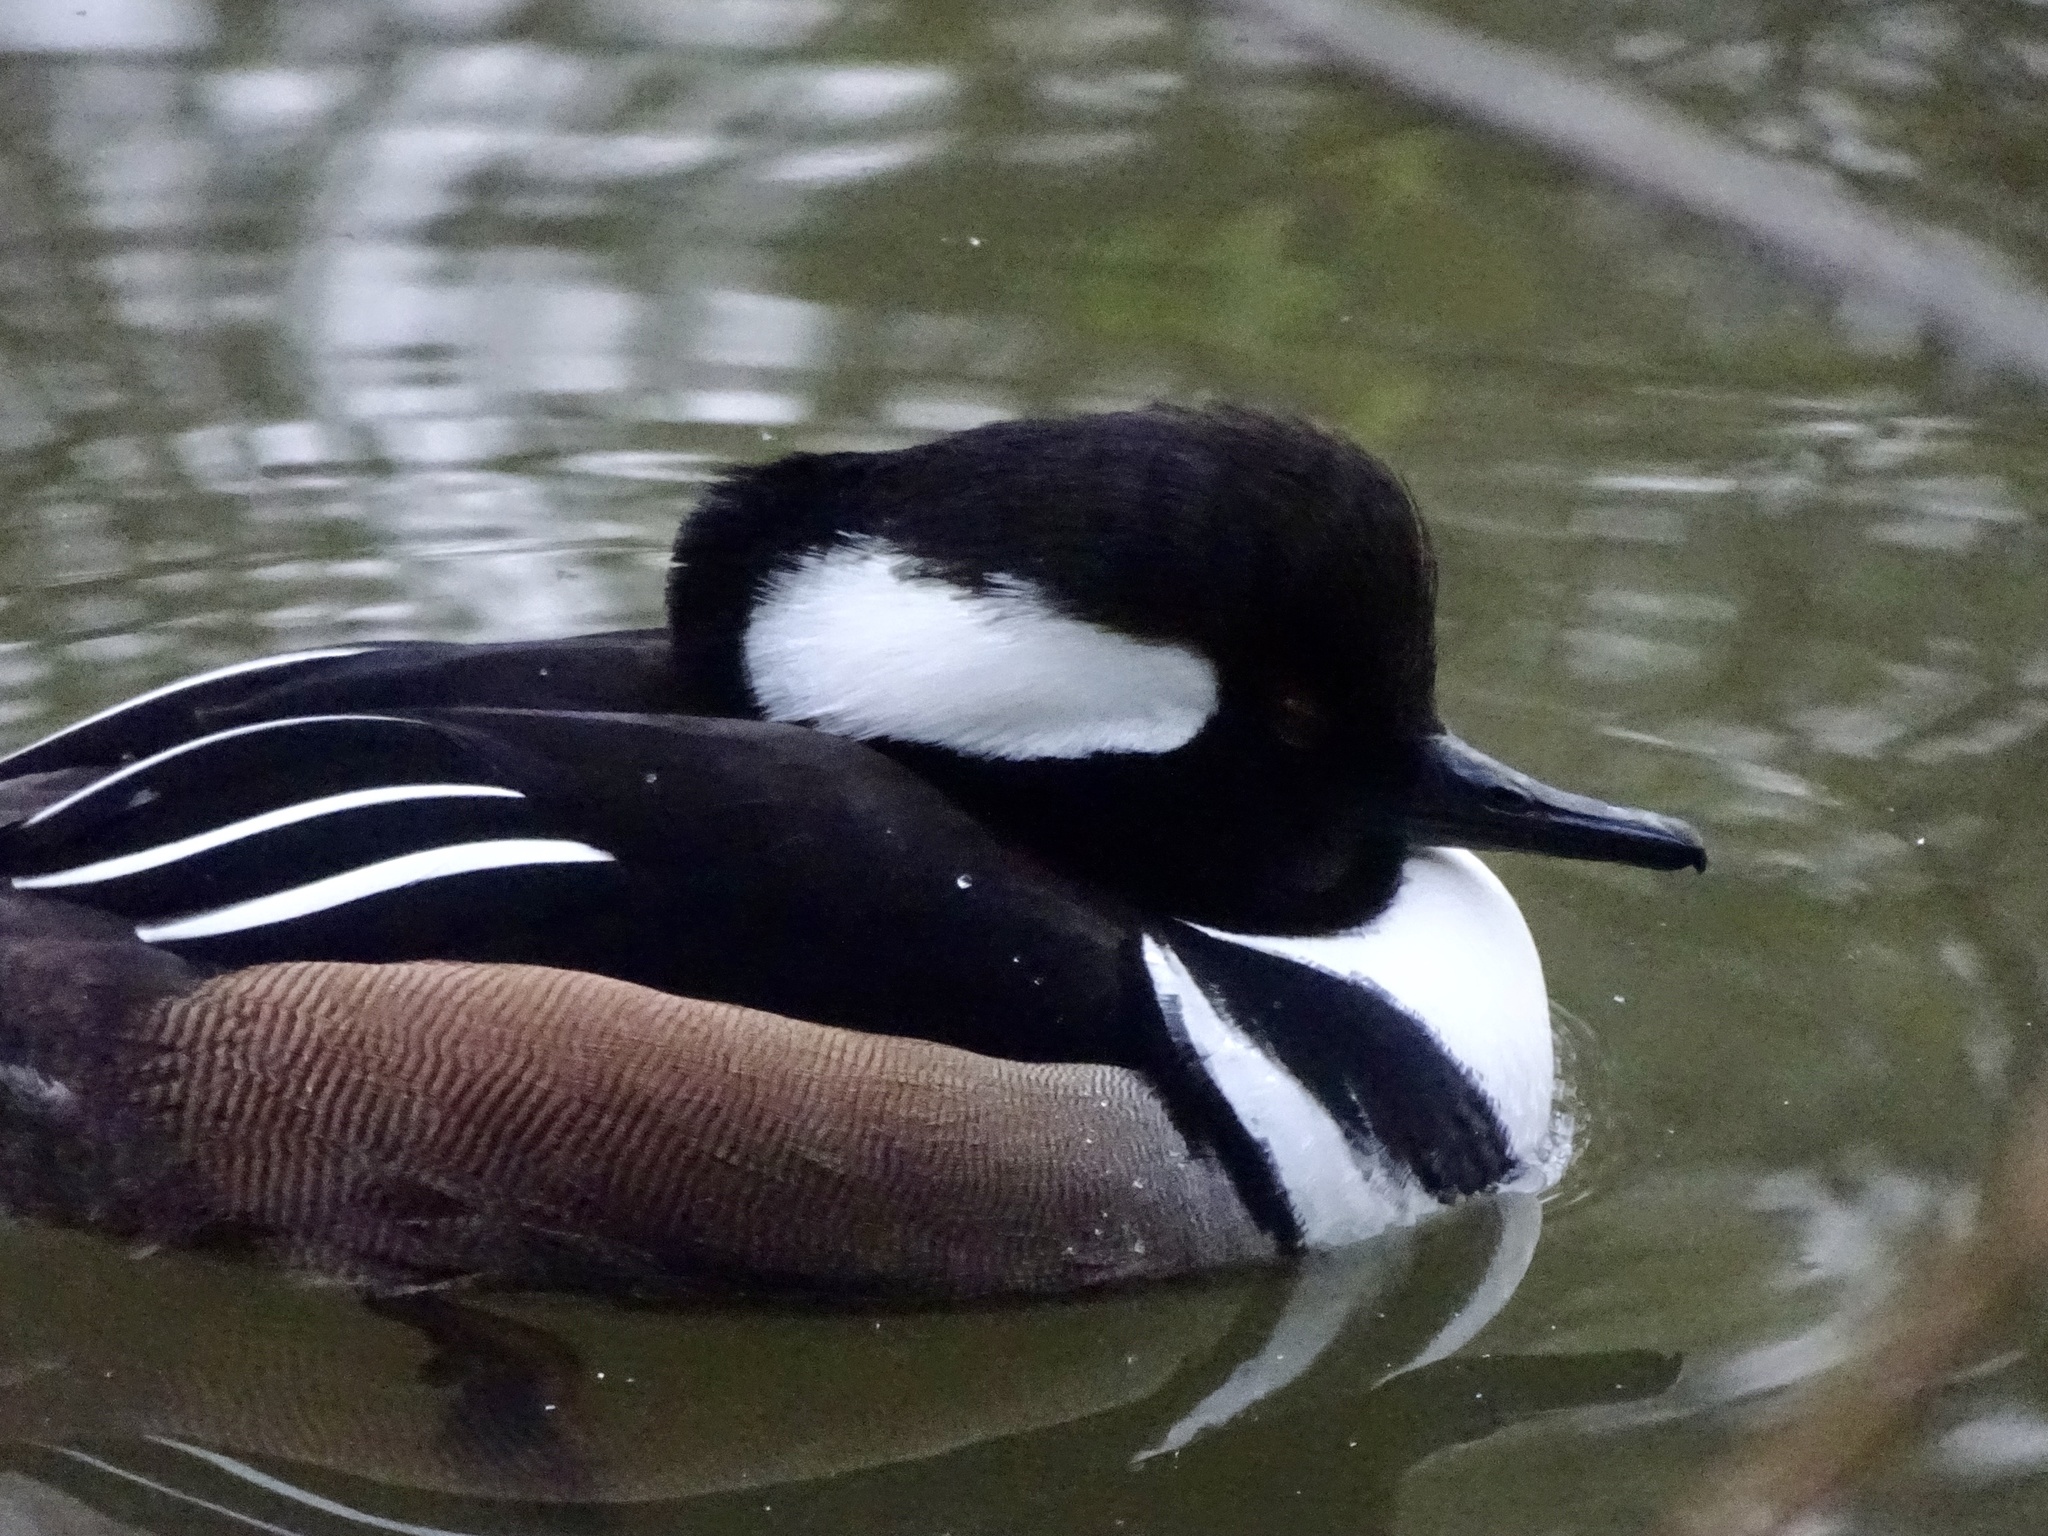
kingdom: Animalia
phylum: Chordata
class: Aves
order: Anseriformes
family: Anatidae
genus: Lophodytes
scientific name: Lophodytes cucullatus
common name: Hooded merganser
